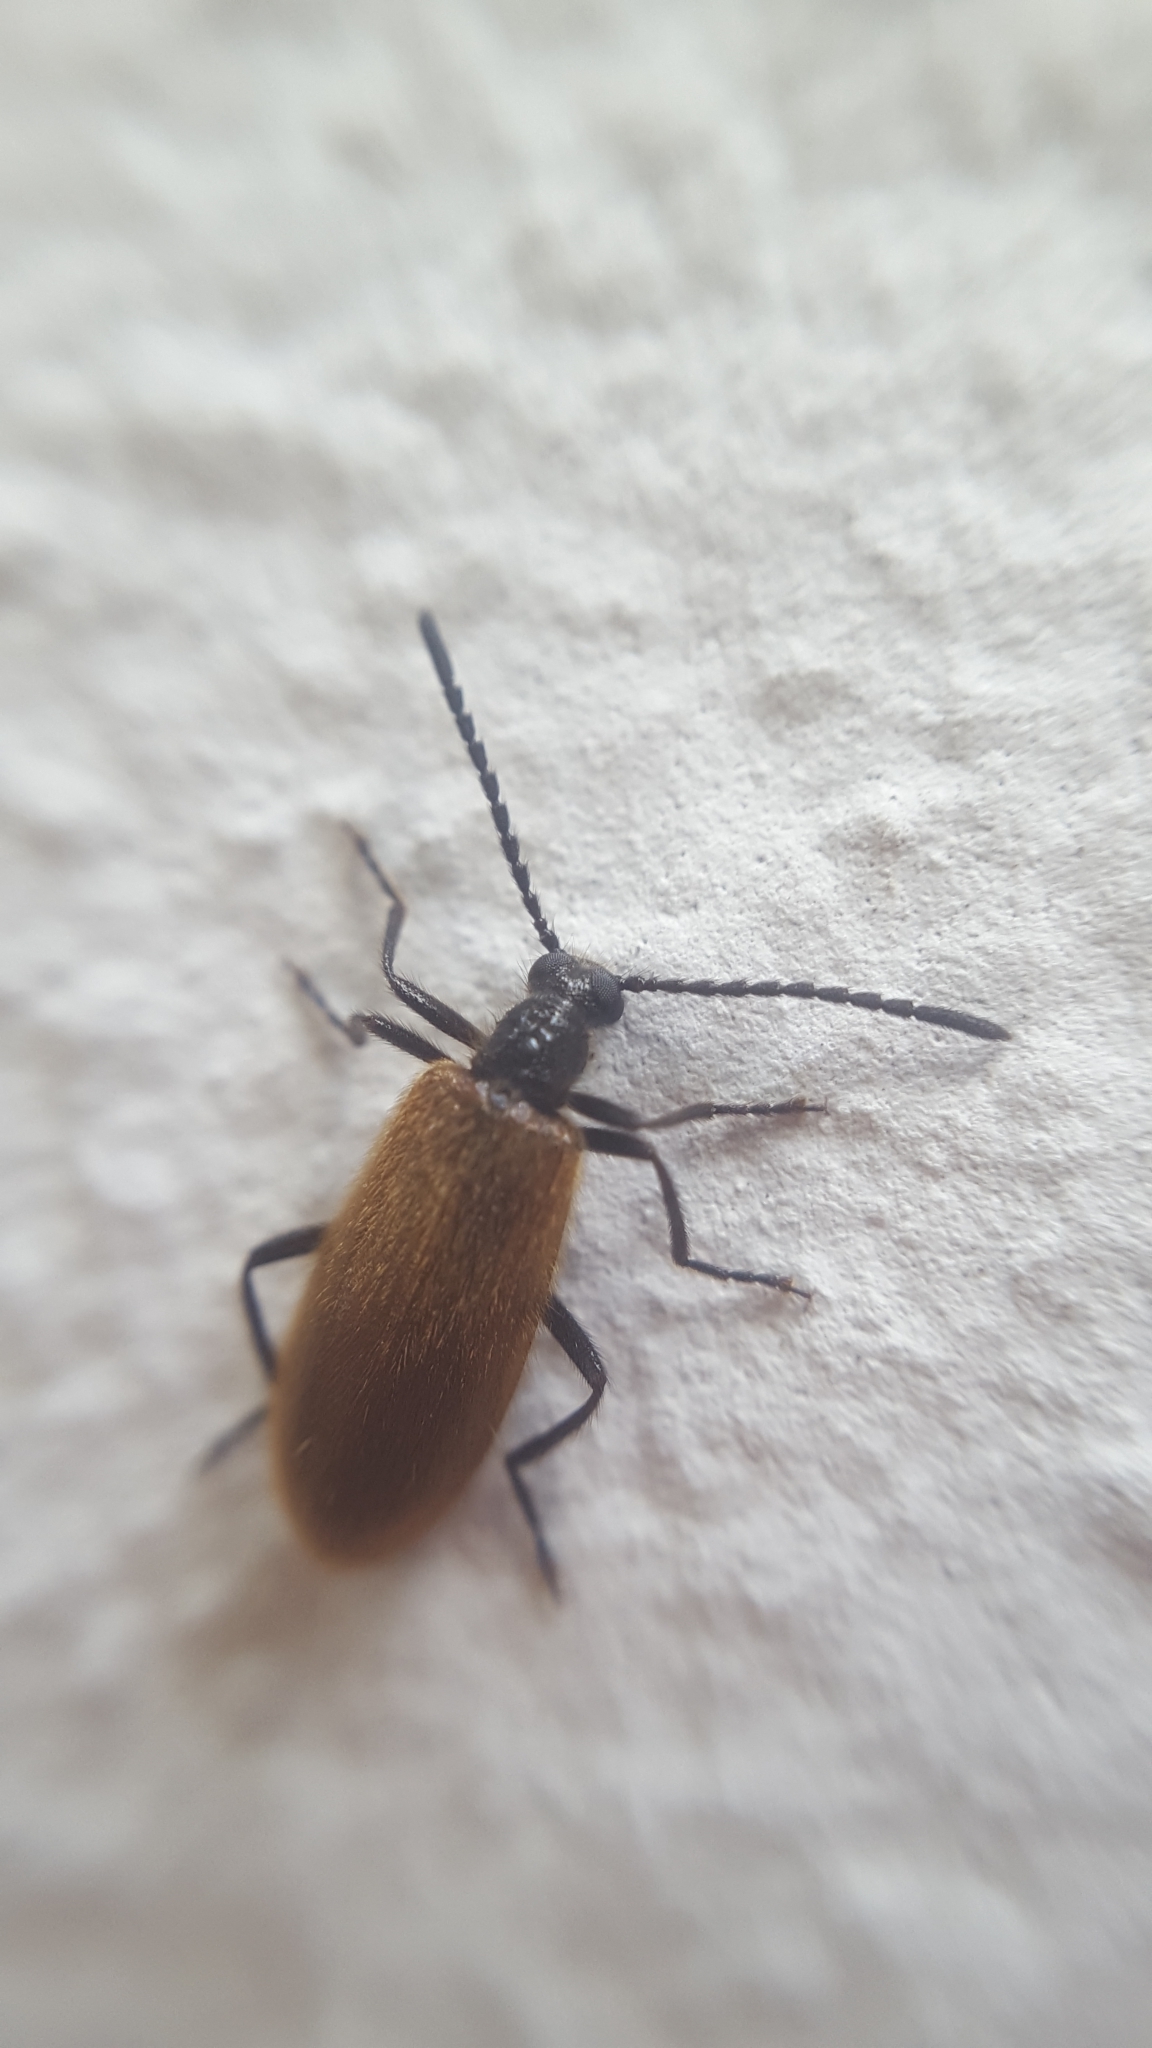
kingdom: Animalia
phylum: Arthropoda
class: Insecta
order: Coleoptera
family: Tenebrionidae
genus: Lagria
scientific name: Lagria hirta
